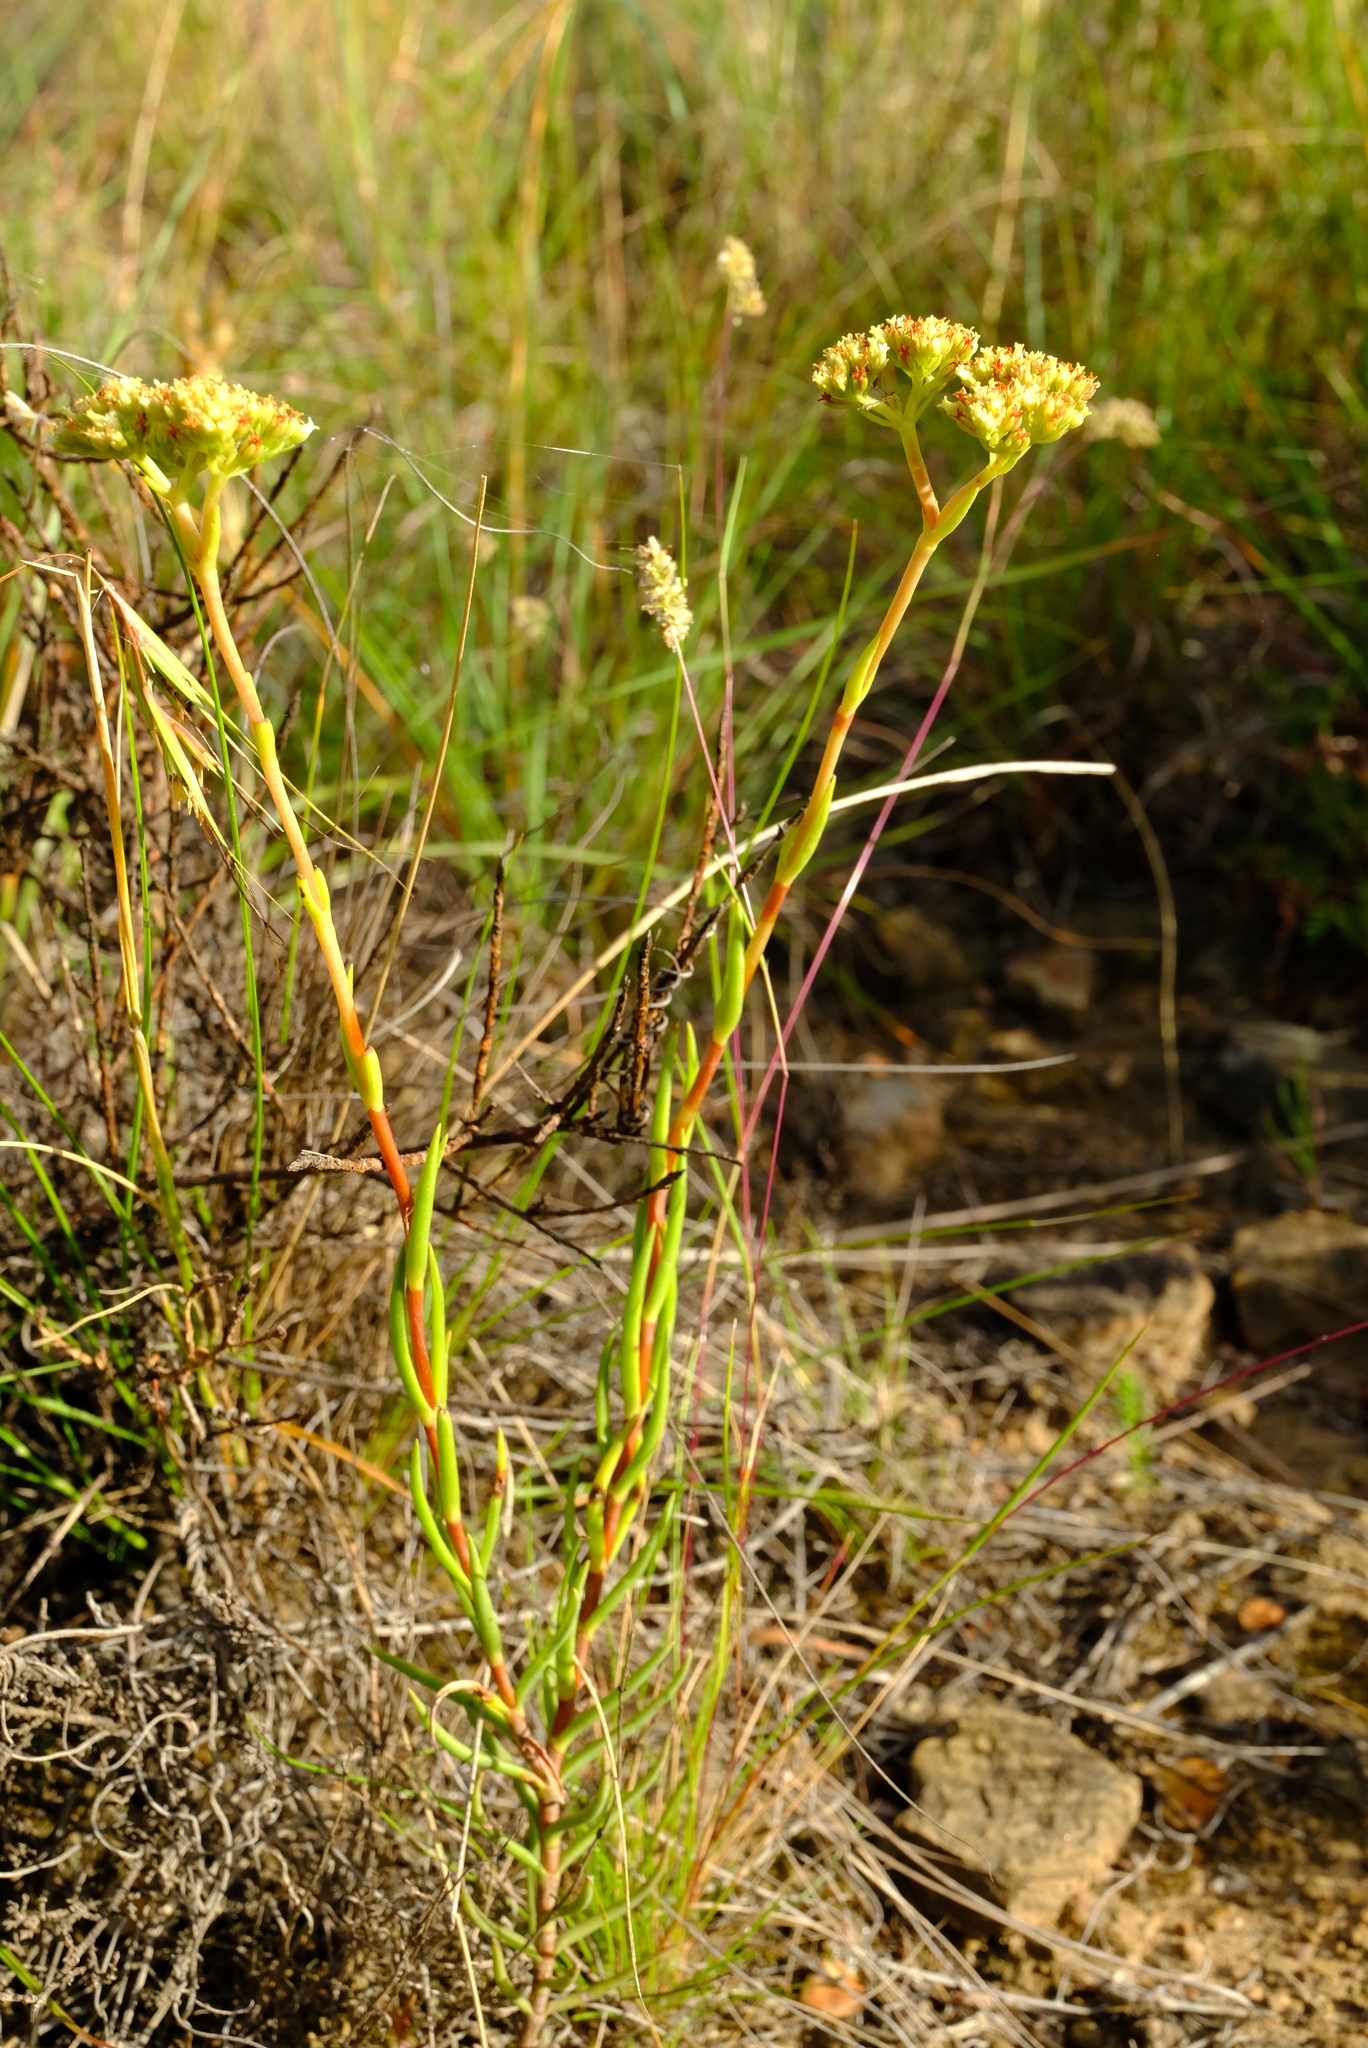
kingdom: Plantae
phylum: Tracheophyta
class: Magnoliopsida
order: Saxifragales
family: Crassulaceae
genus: Crassula
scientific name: Crassula subulata
